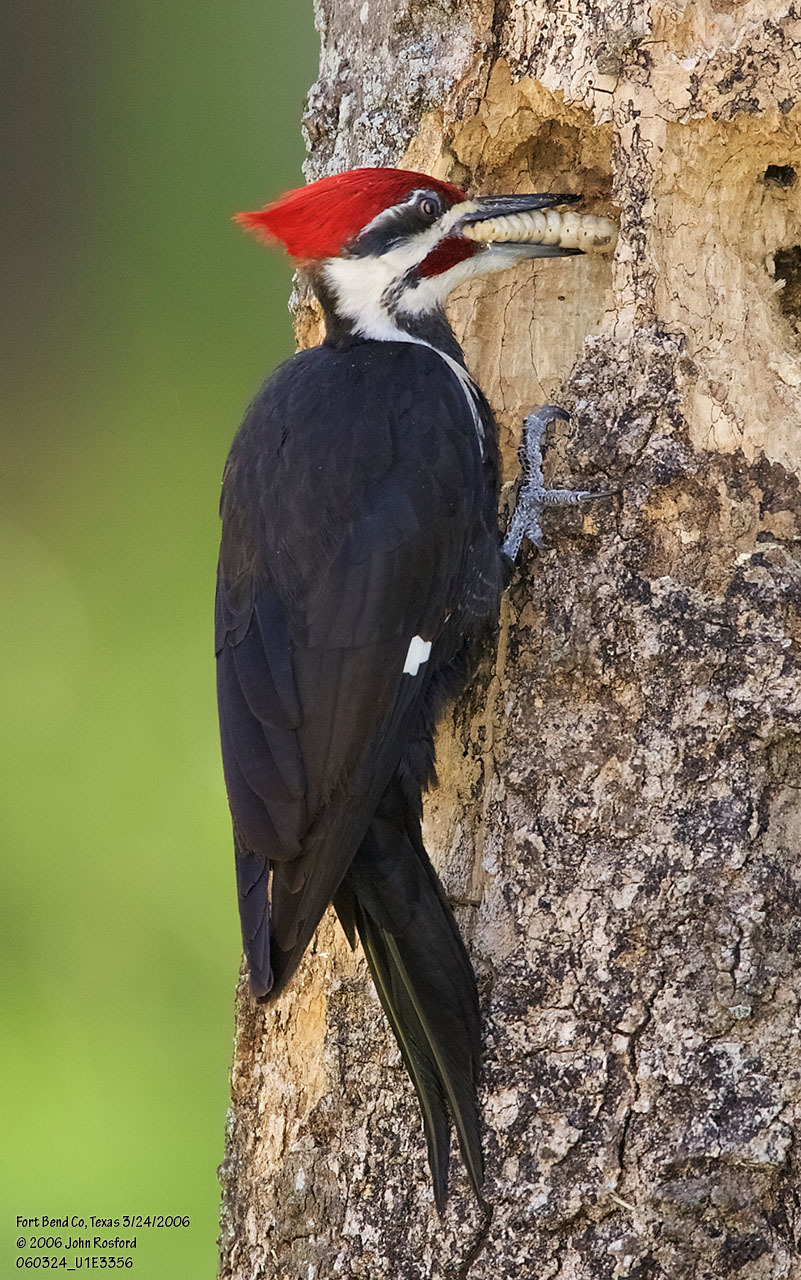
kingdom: Animalia
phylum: Chordata
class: Aves
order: Piciformes
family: Picidae
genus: Dryocopus
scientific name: Dryocopus pileatus
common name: Pileated woodpecker
